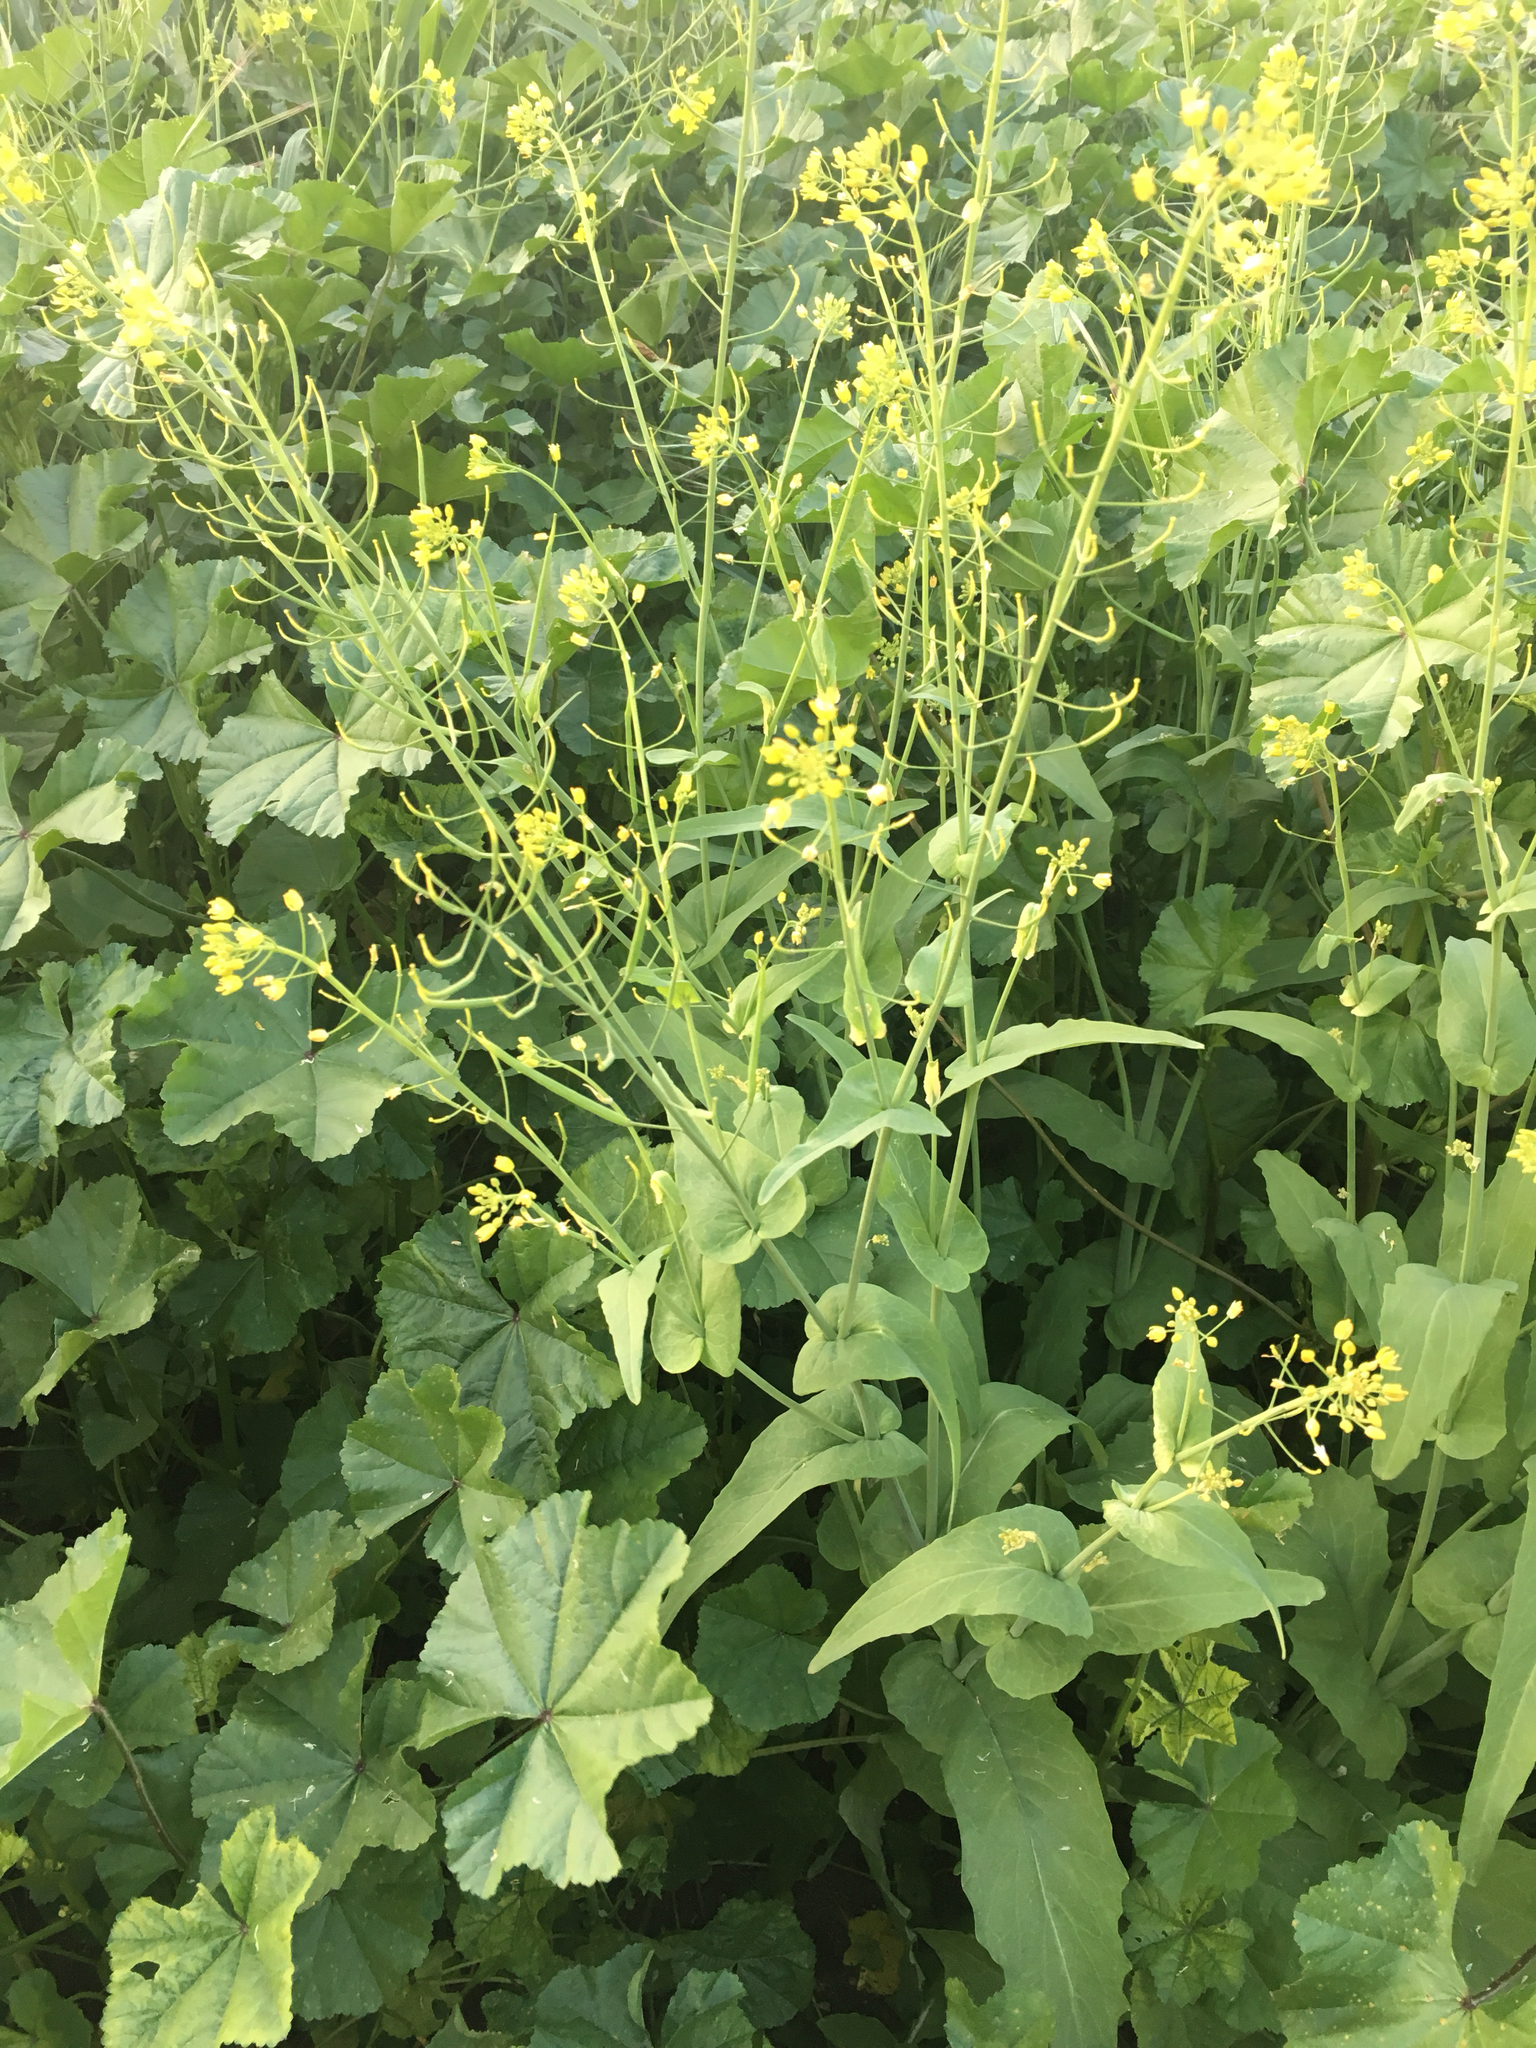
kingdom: Plantae
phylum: Tracheophyta
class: Magnoliopsida
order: Brassicales
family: Brassicaceae
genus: Brassica
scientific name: Brassica rapa
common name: Field mustard
